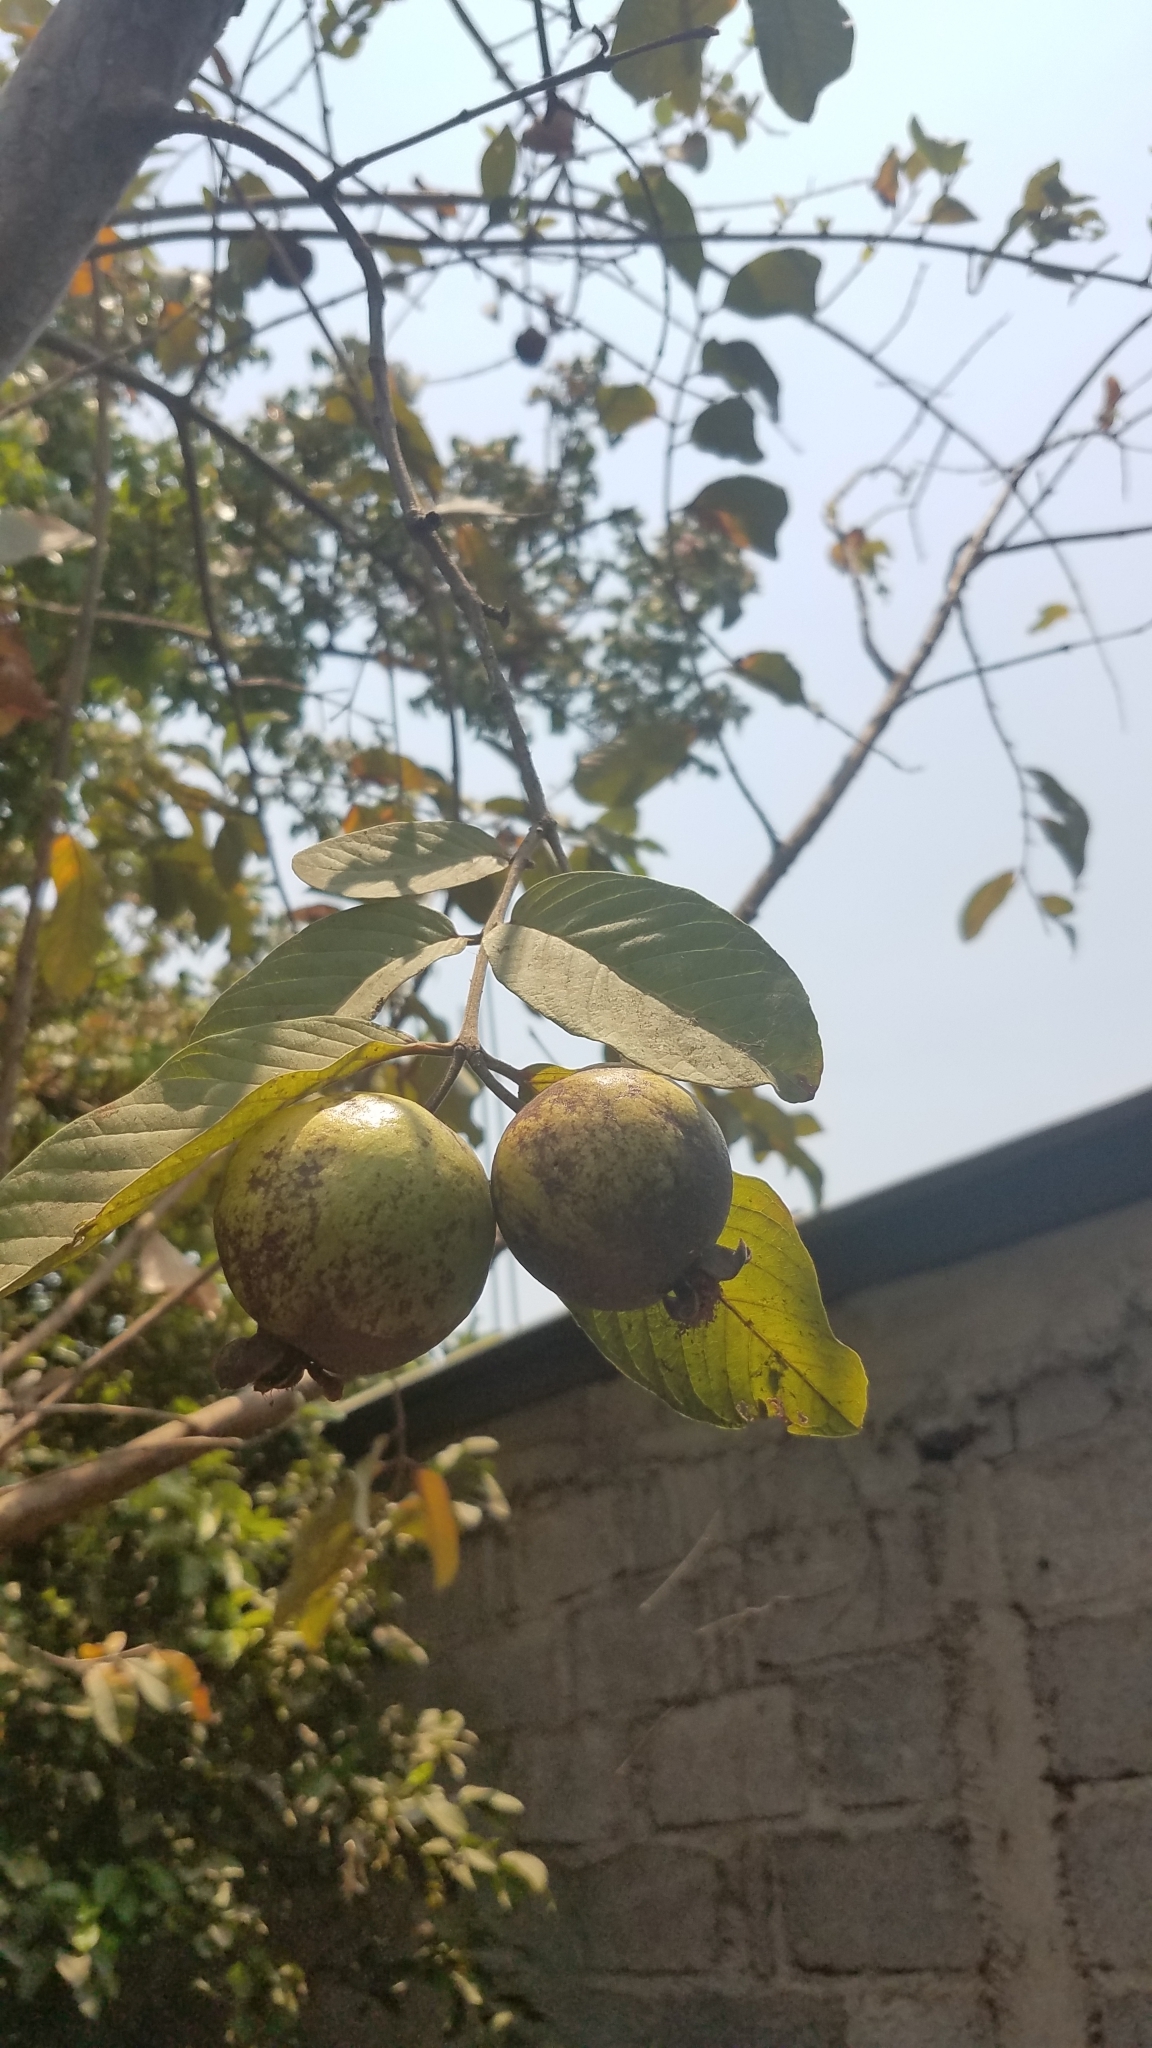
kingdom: Plantae
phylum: Tracheophyta
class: Magnoliopsida
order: Myrtales
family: Myrtaceae
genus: Psidium
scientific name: Psidium guajava
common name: Guava
